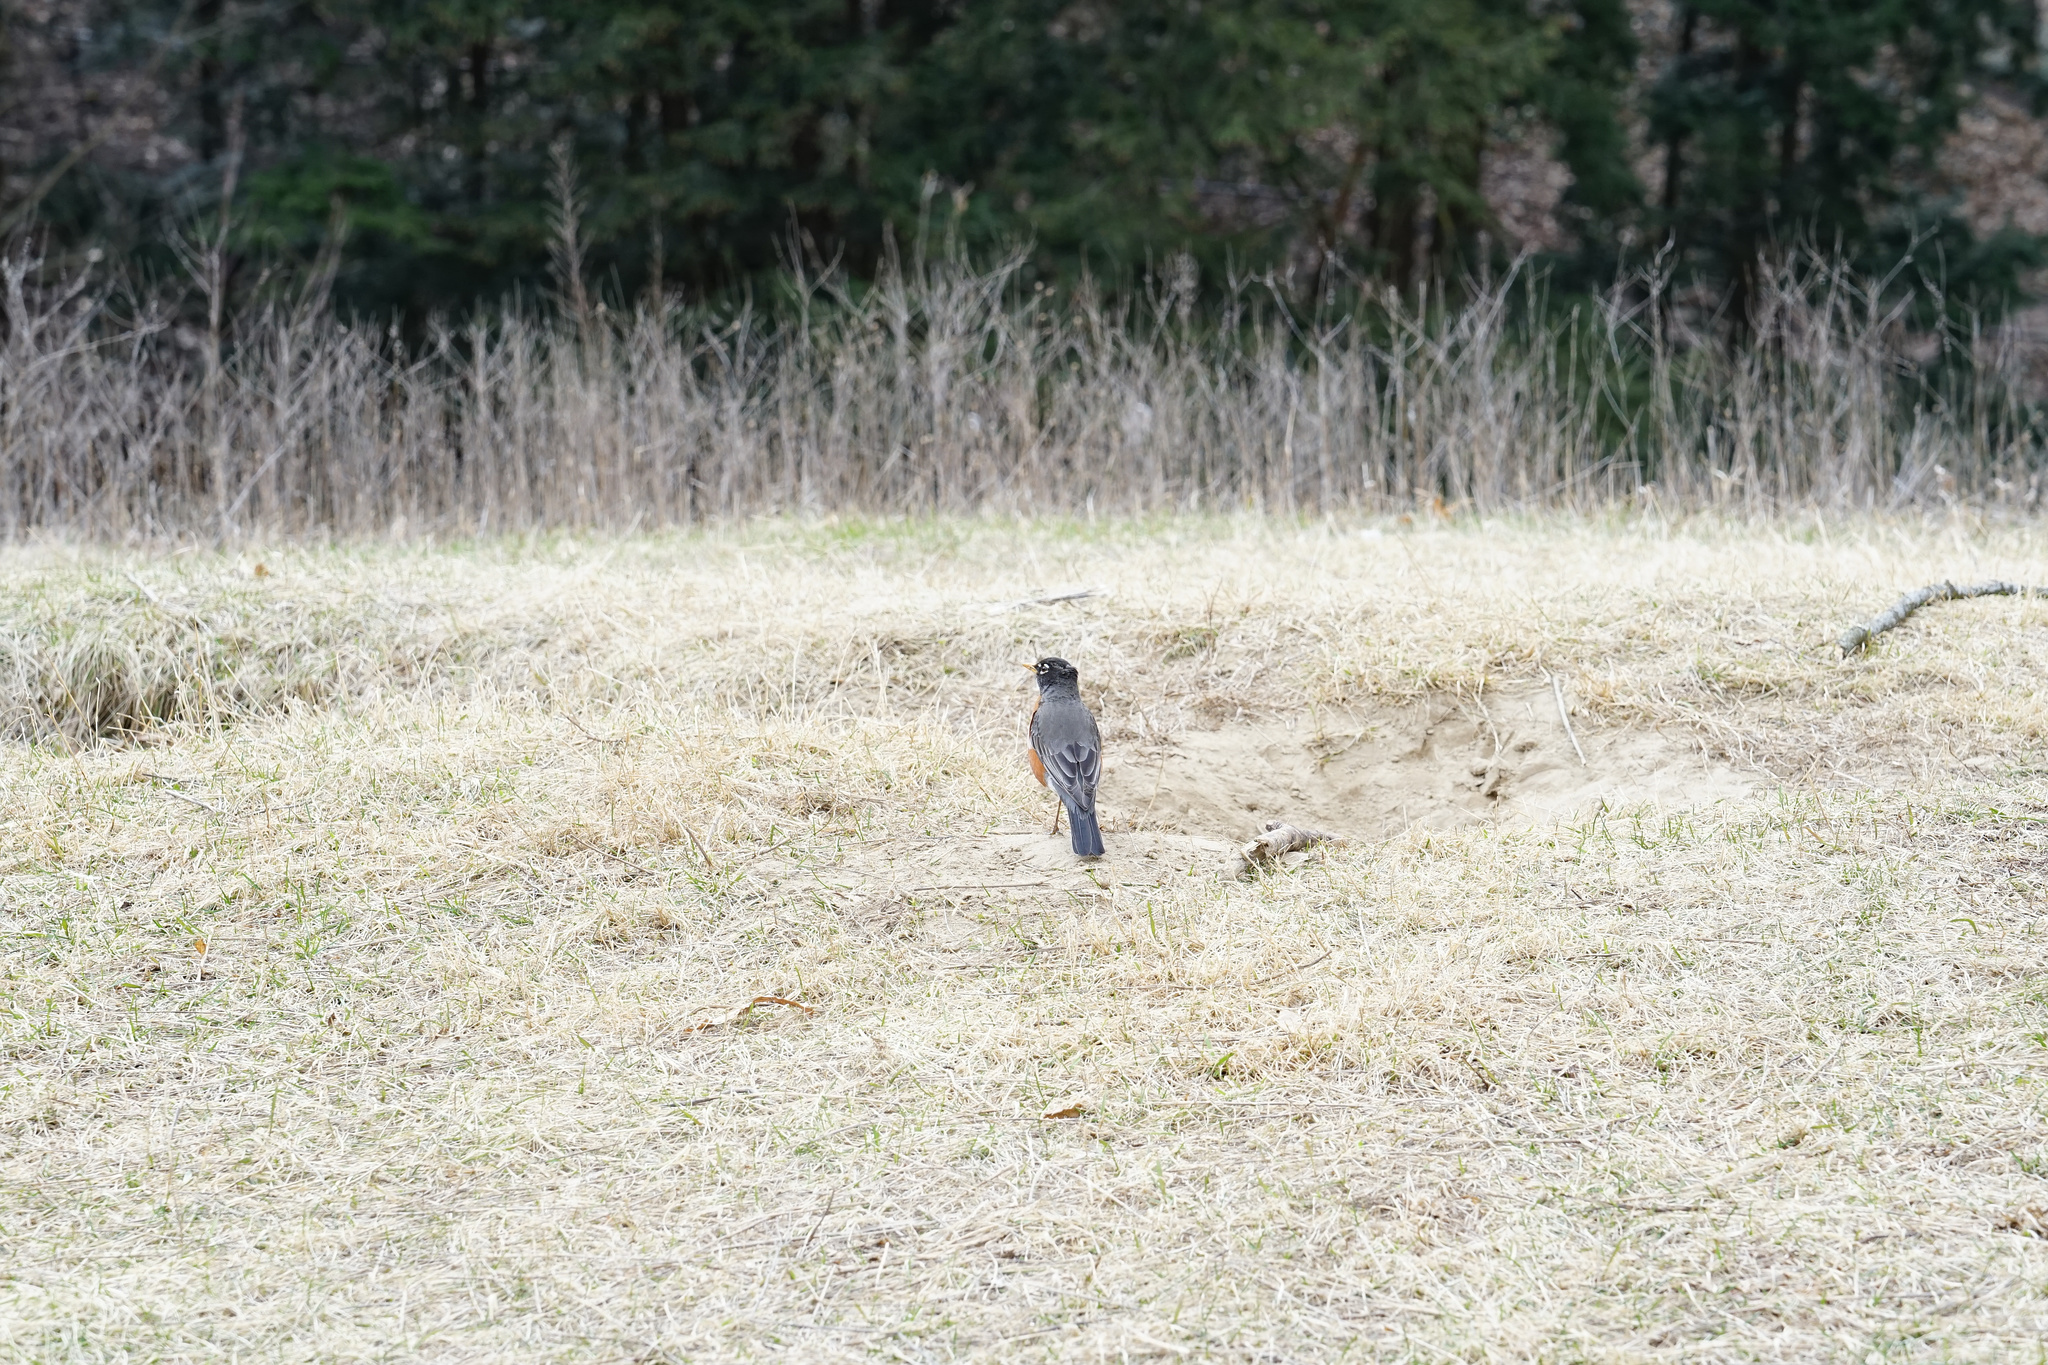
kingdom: Animalia
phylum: Chordata
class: Aves
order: Passeriformes
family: Turdidae
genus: Turdus
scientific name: Turdus migratorius
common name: American robin
